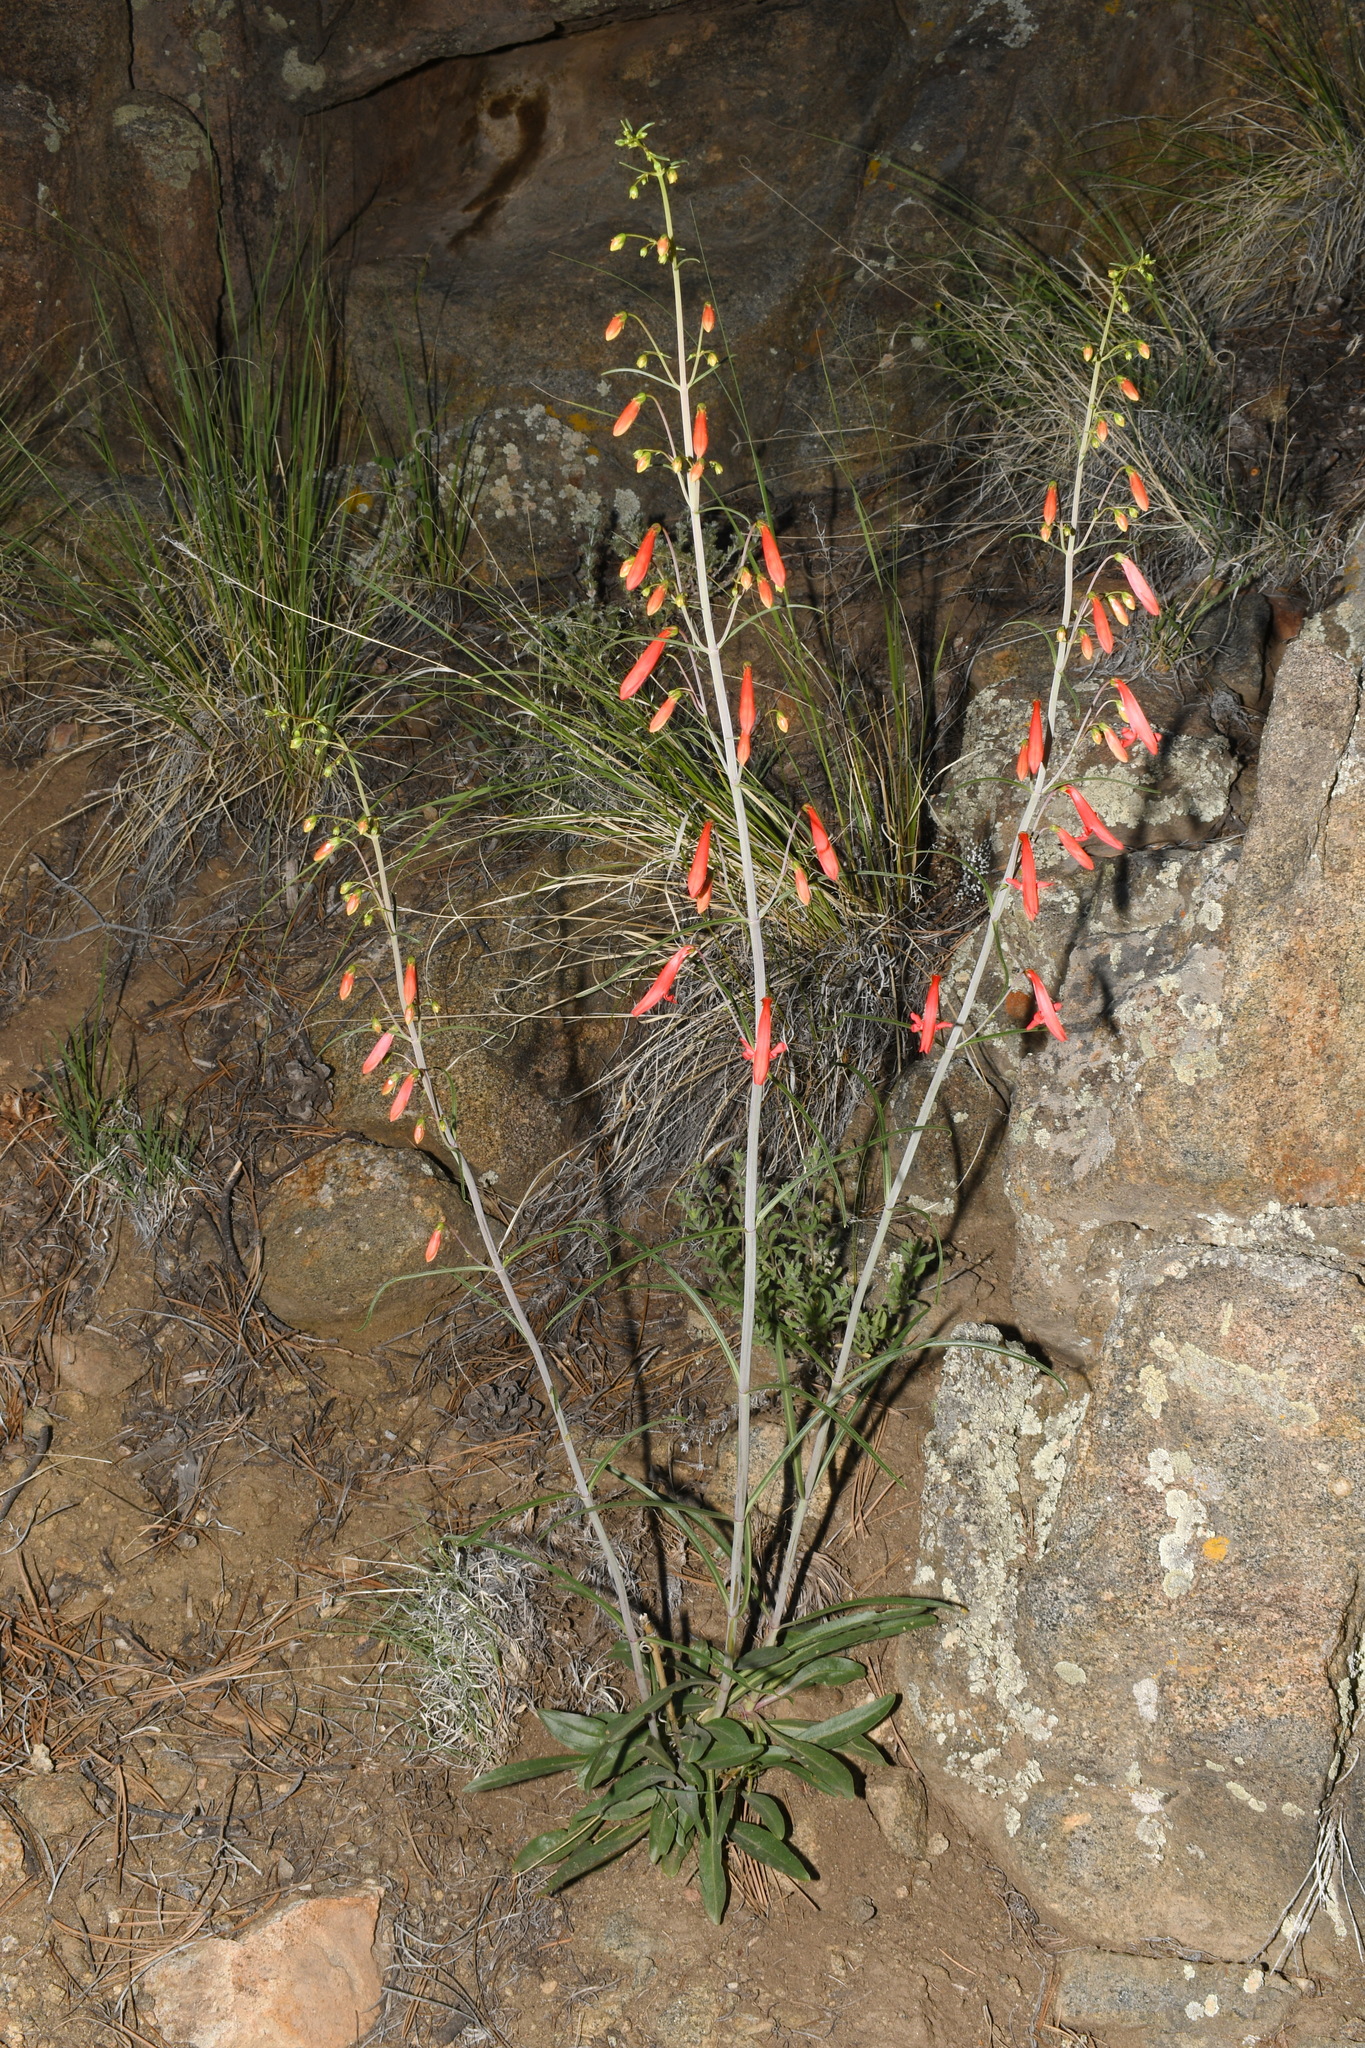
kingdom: Plantae
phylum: Tracheophyta
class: Magnoliopsida
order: Lamiales
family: Plantaginaceae
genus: Penstemon
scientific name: Penstemon barbatus
